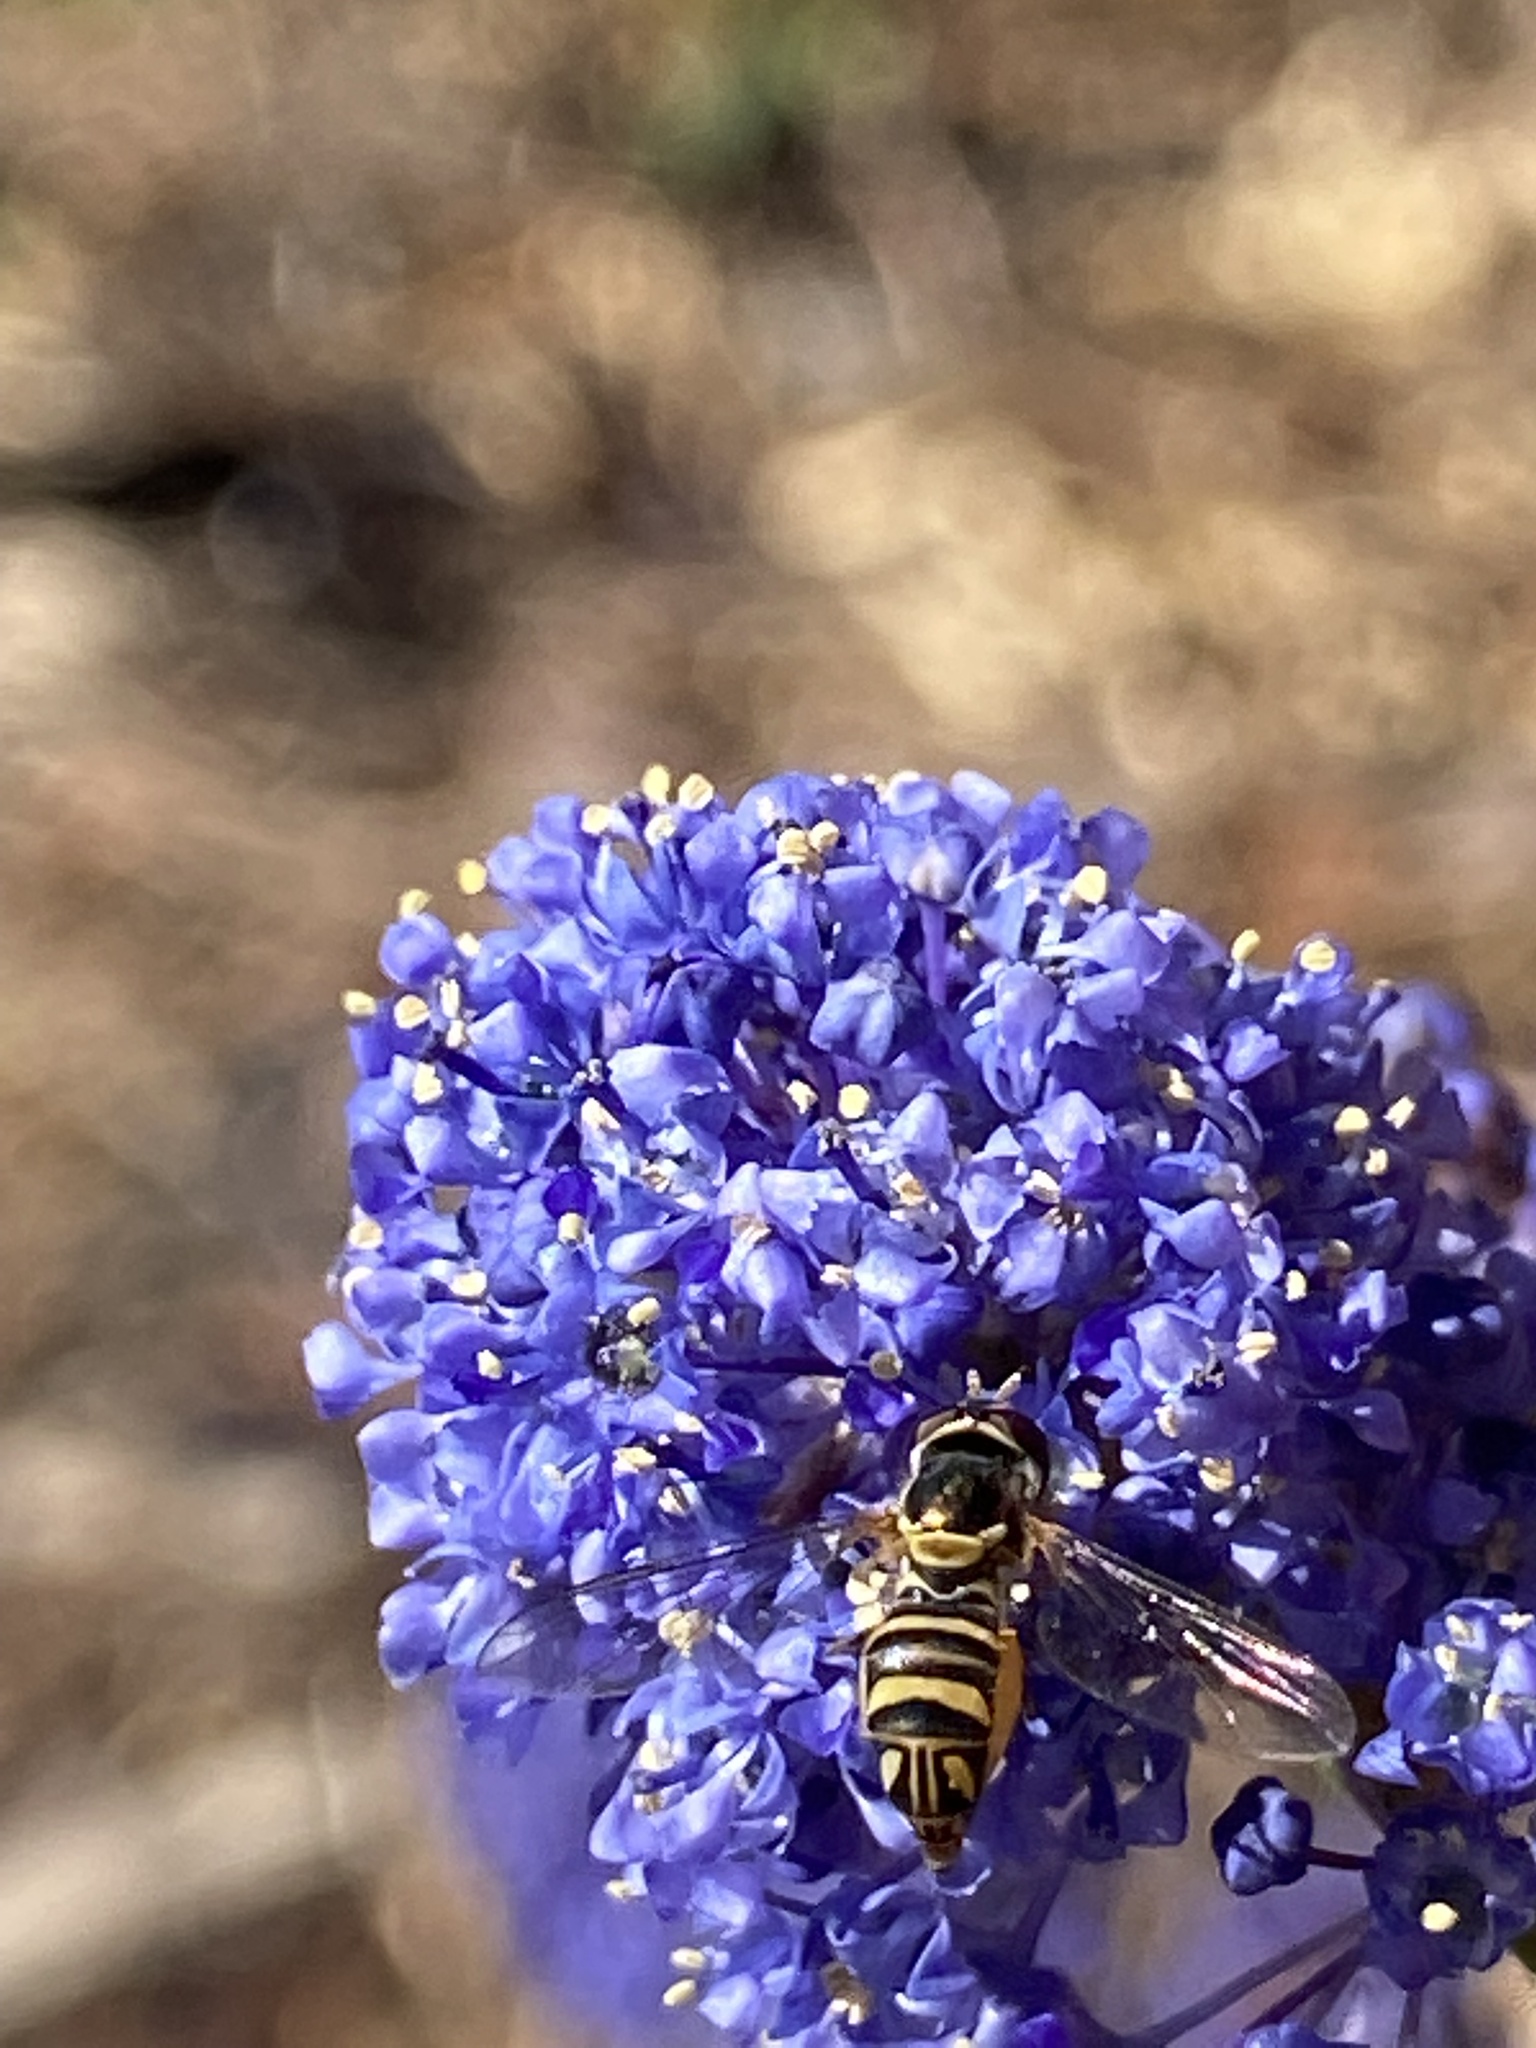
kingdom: Animalia
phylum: Arthropoda
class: Insecta
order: Diptera
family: Syrphidae
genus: Allograpta
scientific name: Allograpta obliqua
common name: Common oblique syrphid
